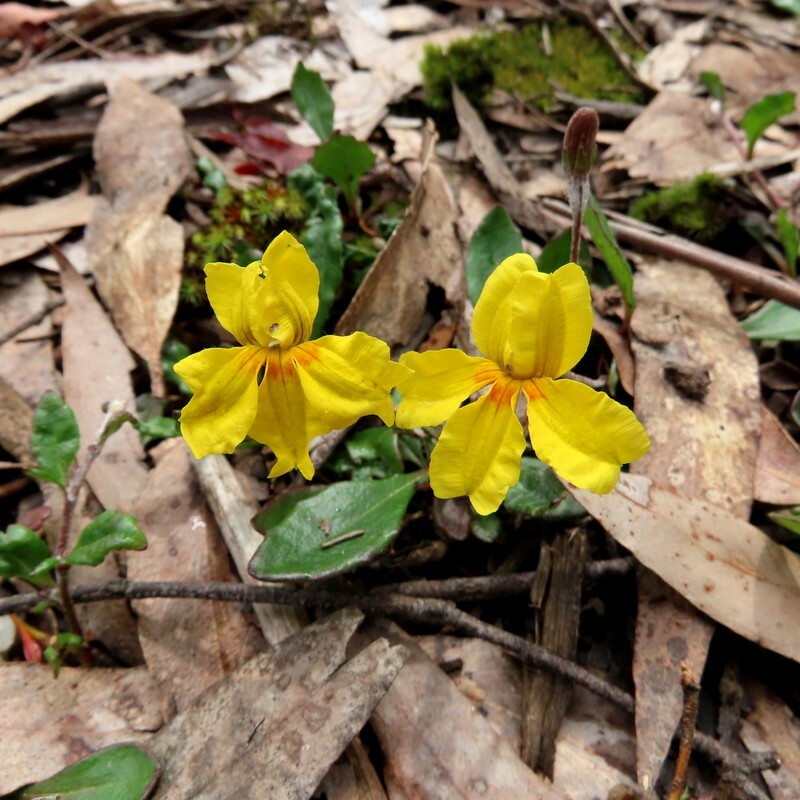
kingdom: Plantae
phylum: Tracheophyta
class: Magnoliopsida
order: Asterales
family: Goodeniaceae
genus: Goodenia
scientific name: Goodenia lanata
